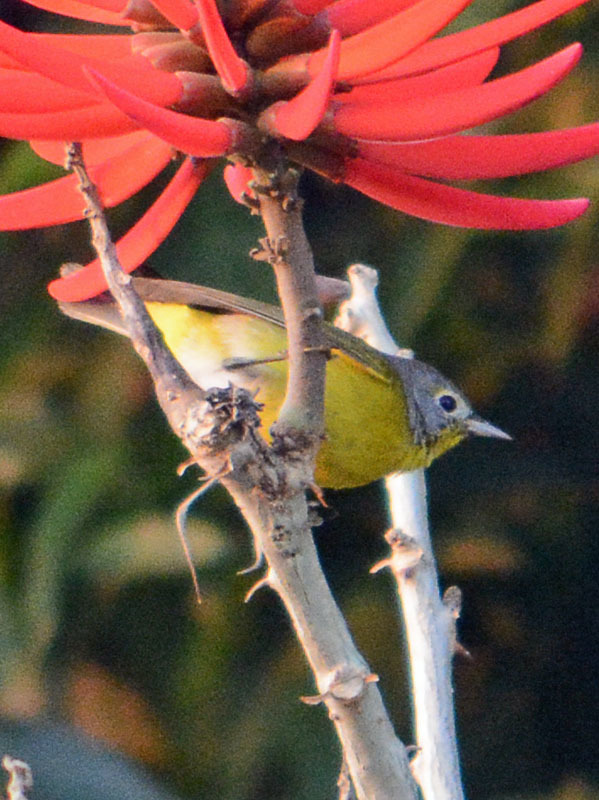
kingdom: Animalia
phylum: Chordata
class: Aves
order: Passeriformes
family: Parulidae
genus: Leiothlypis
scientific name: Leiothlypis ruficapilla
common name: Nashville warbler
